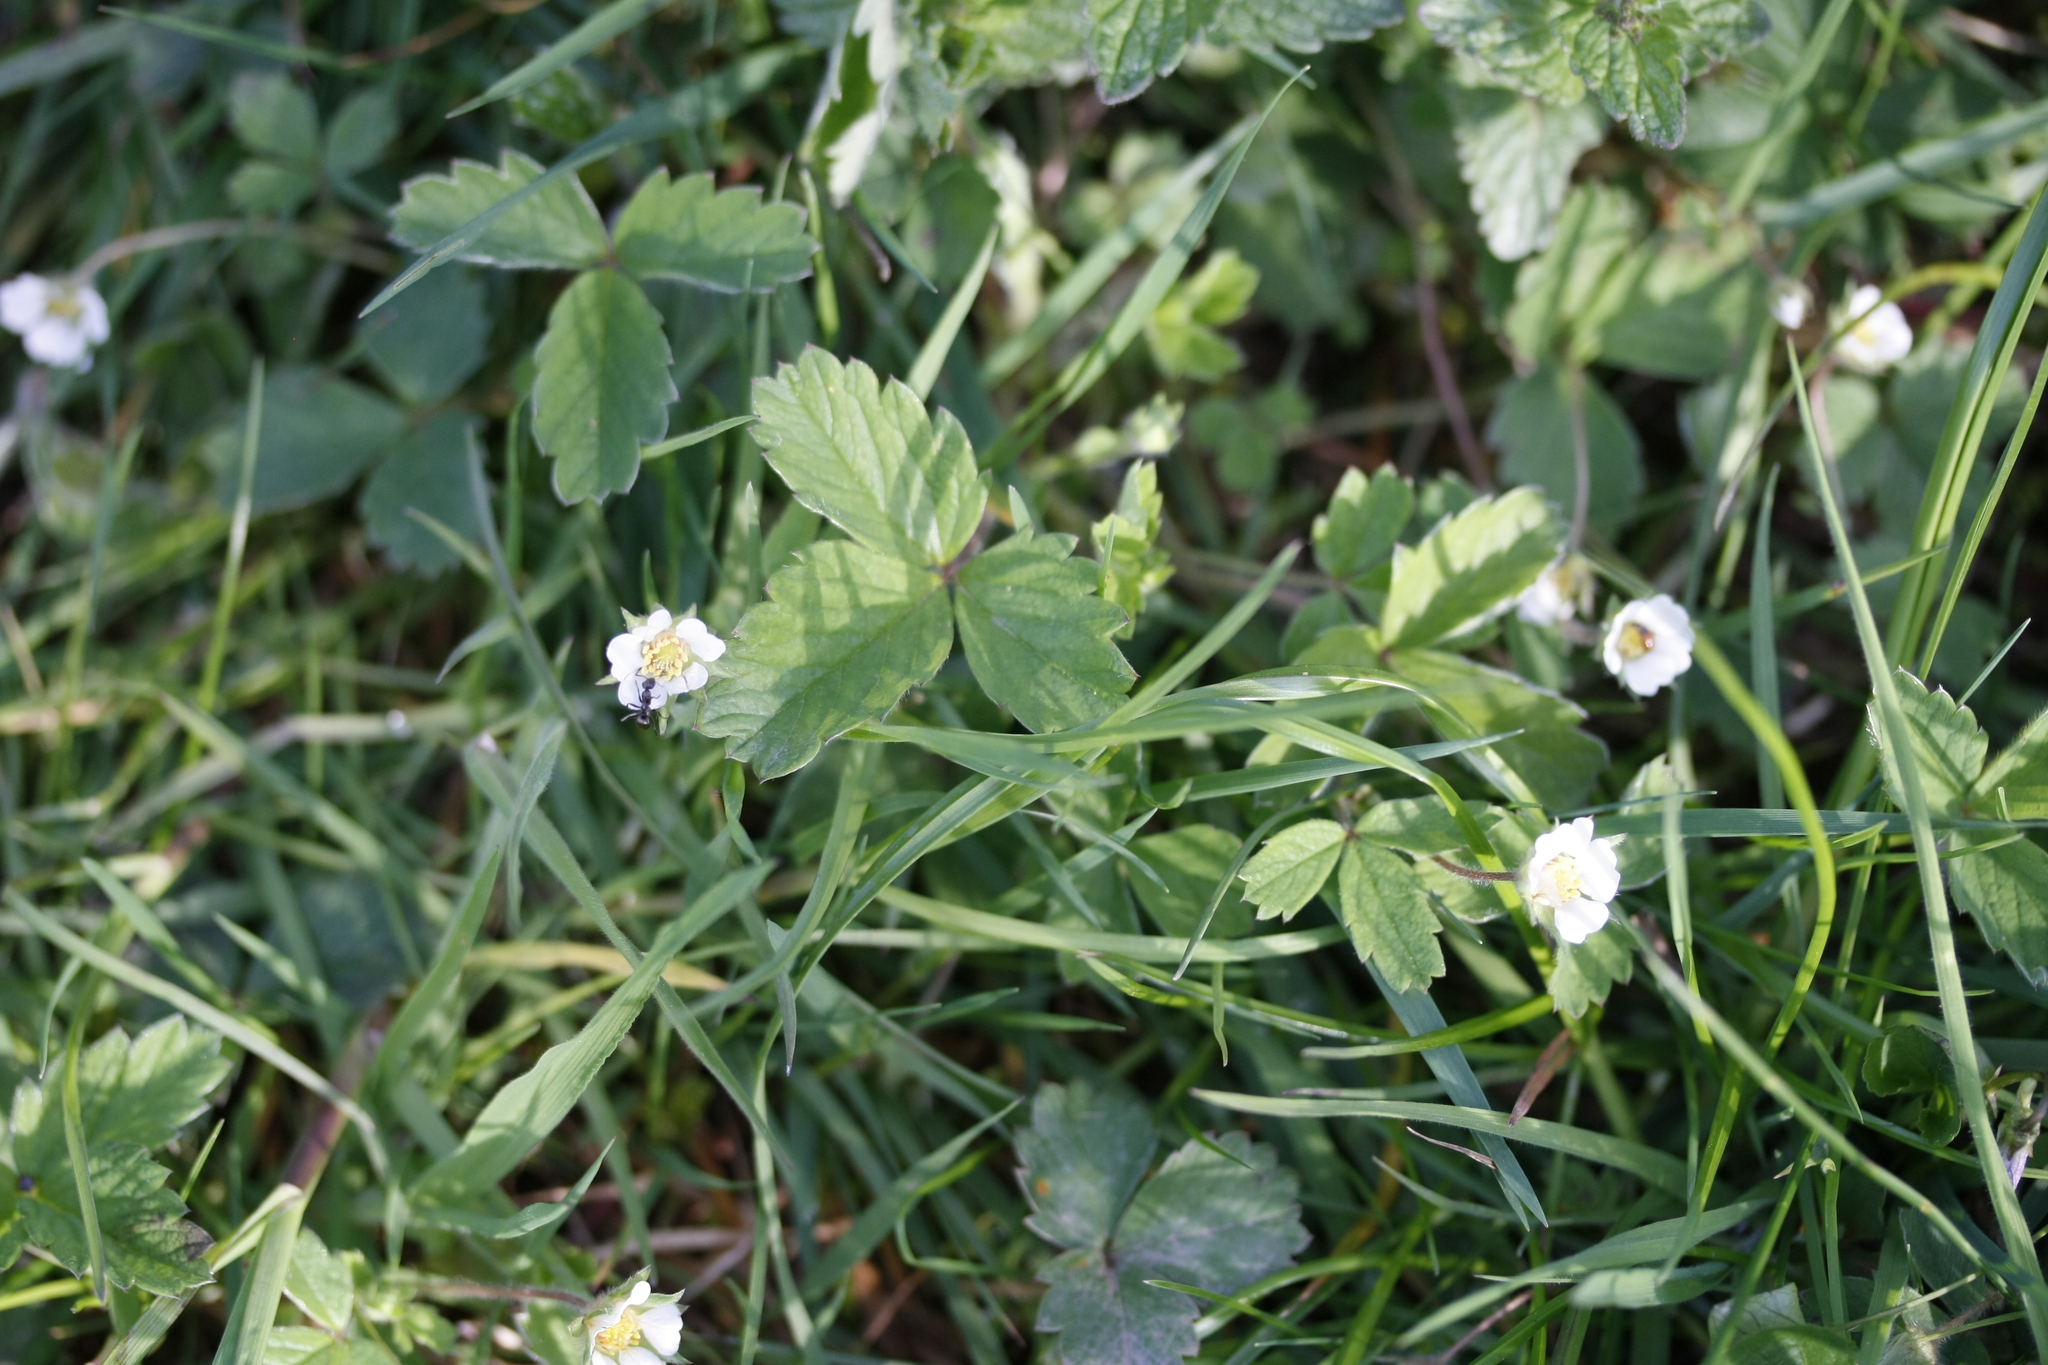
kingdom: Plantae
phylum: Tracheophyta
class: Magnoliopsida
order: Rosales
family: Rosaceae
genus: Potentilla
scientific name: Potentilla sterilis
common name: Barren strawberry
